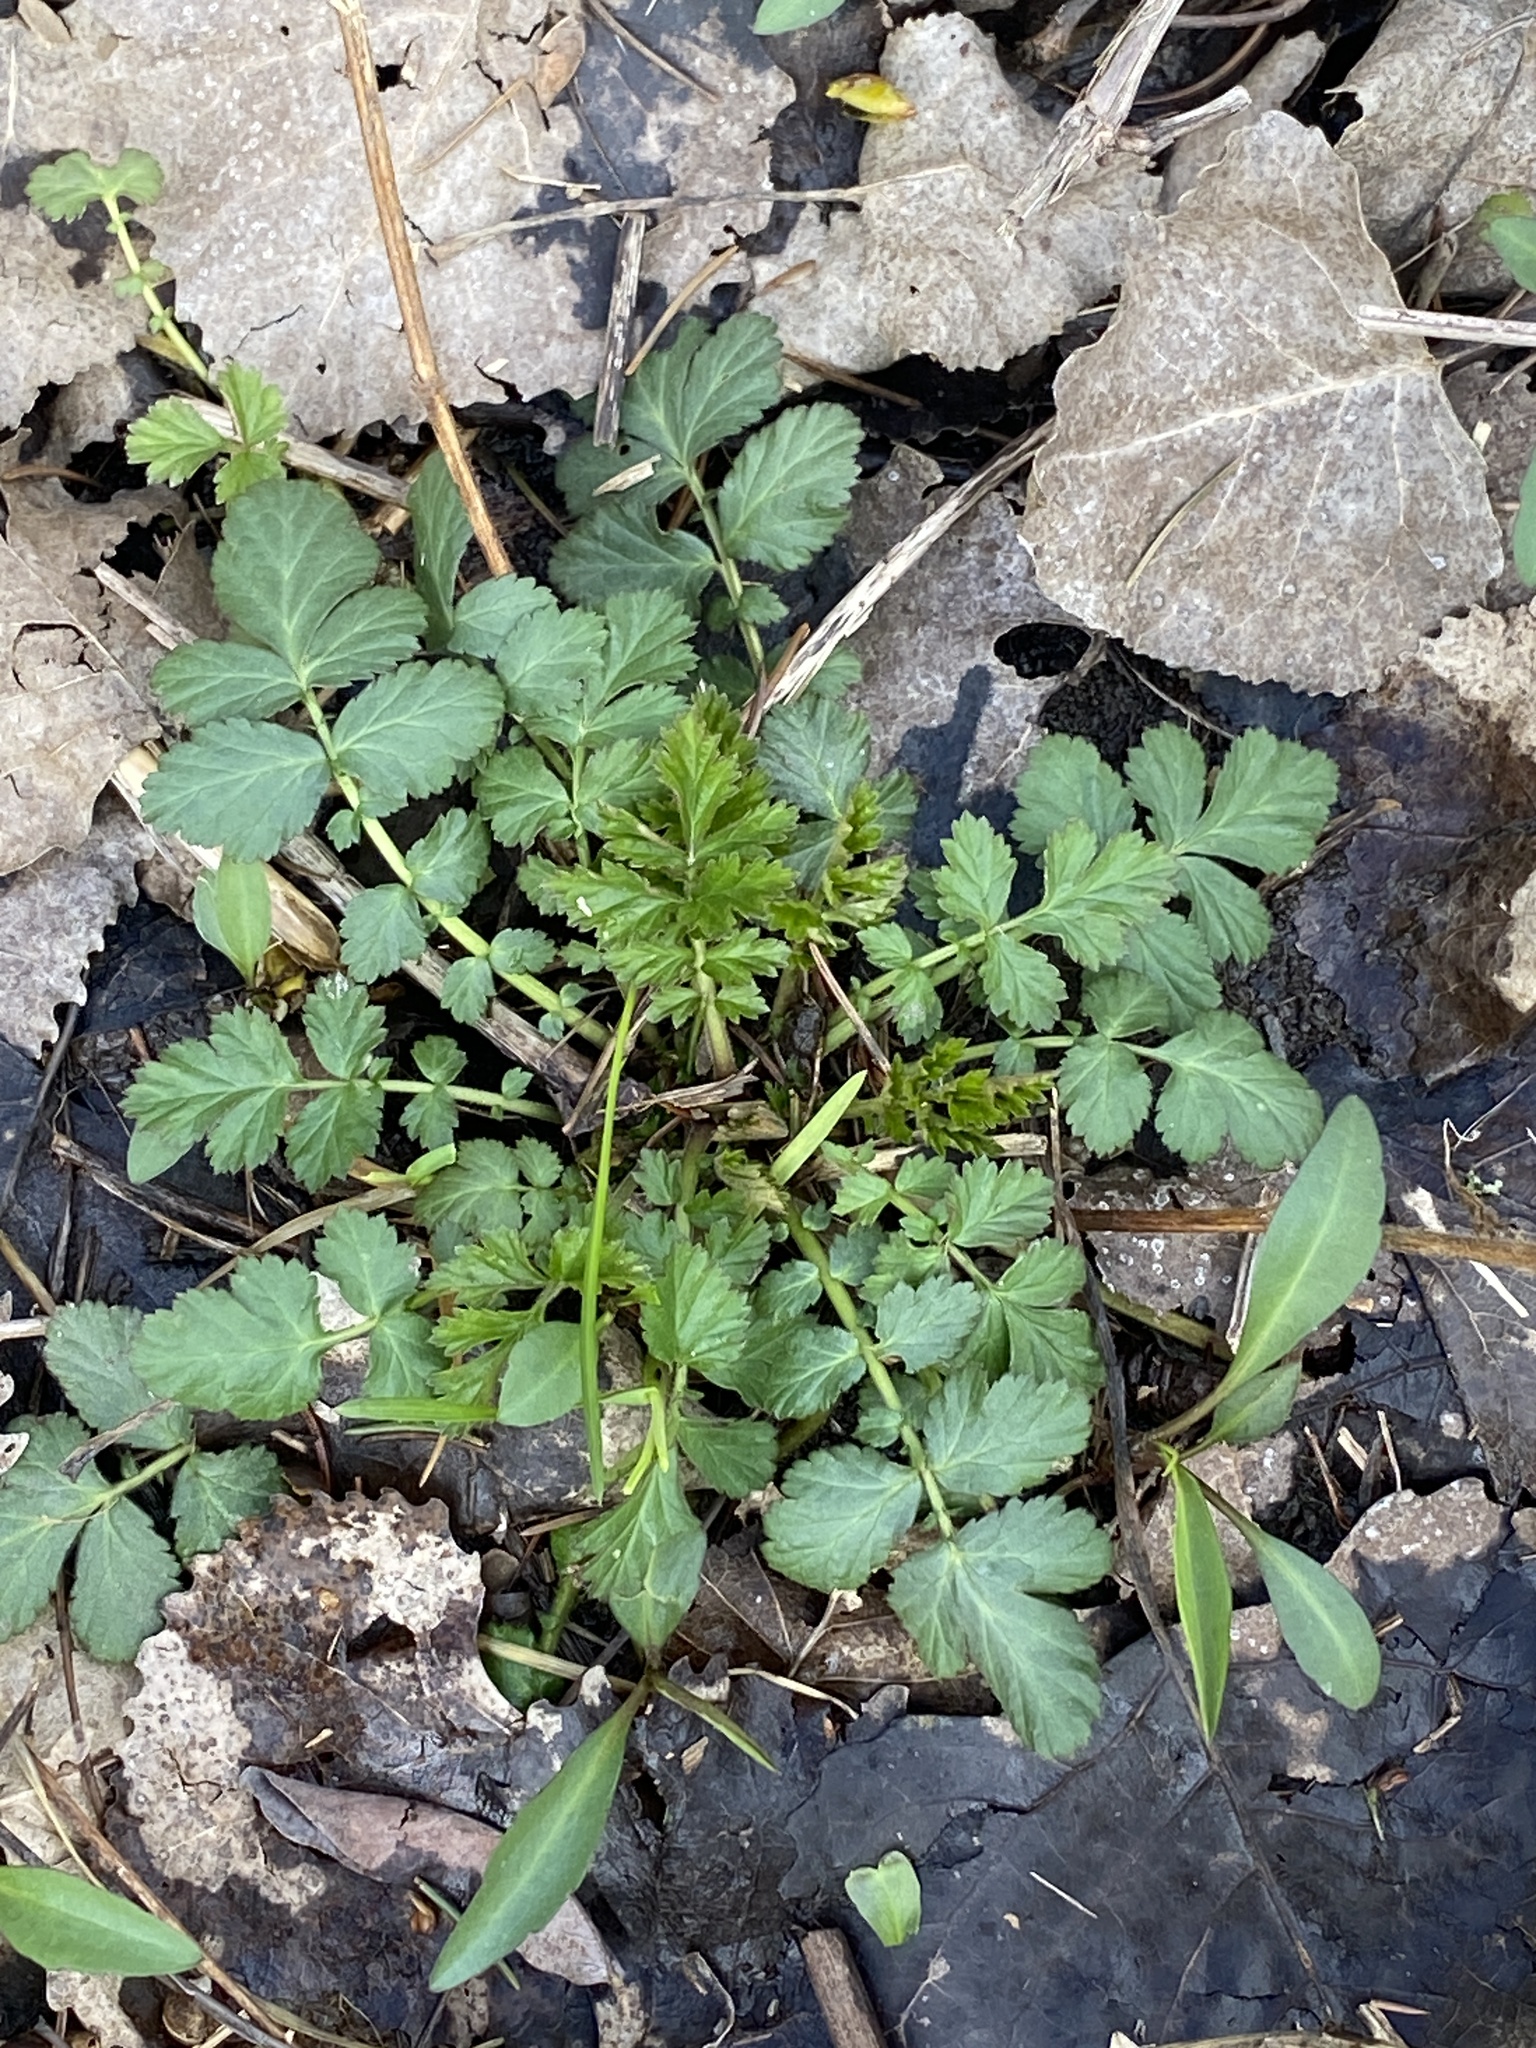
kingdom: Plantae
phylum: Tracheophyta
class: Magnoliopsida
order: Rosales
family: Rosaceae
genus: Geum
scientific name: Geum canadense
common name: White avens
